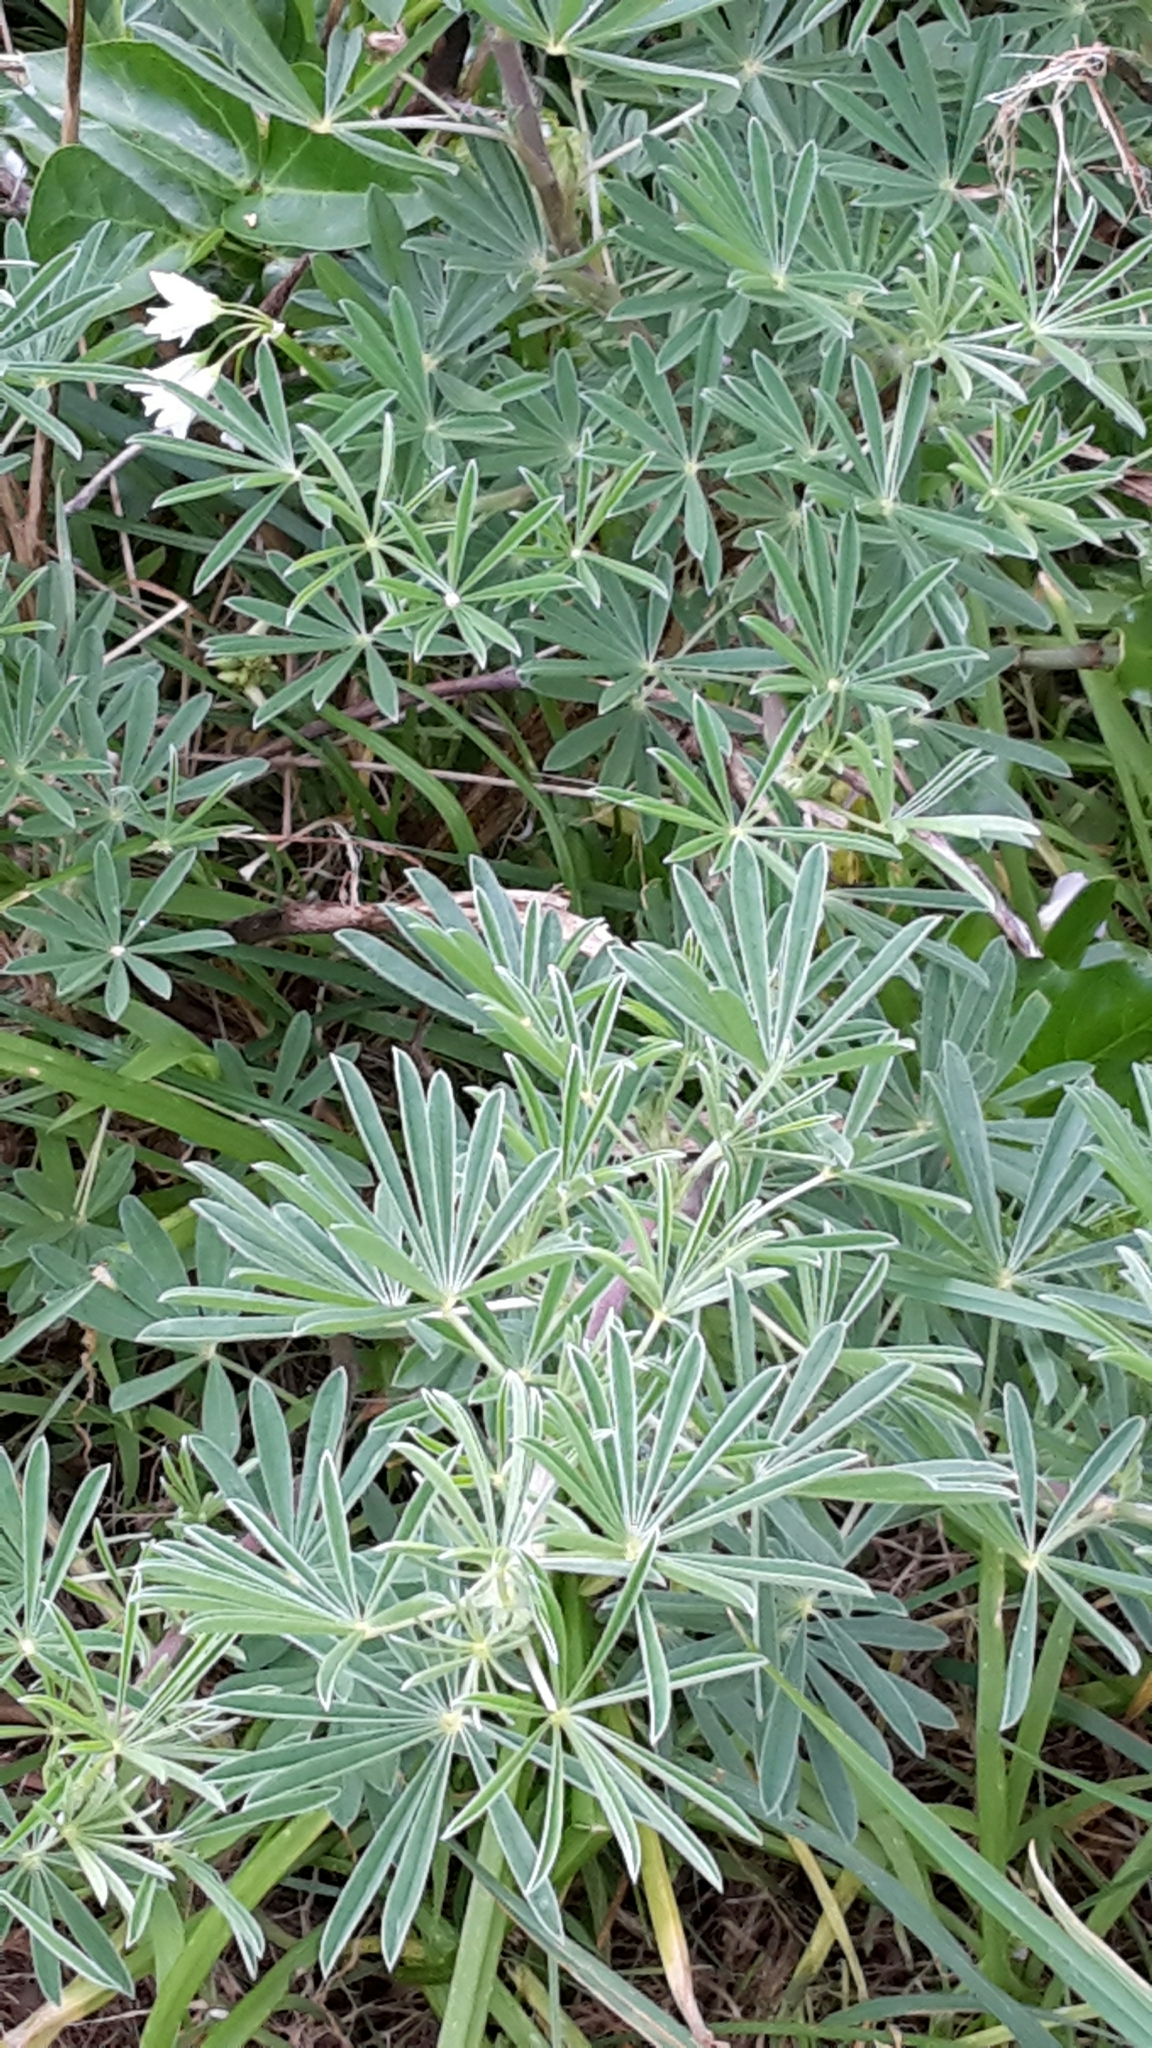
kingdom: Plantae
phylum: Tracheophyta
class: Magnoliopsida
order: Fabales
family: Fabaceae
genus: Lupinus
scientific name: Lupinus arboreus
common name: Yellow bush lupine
